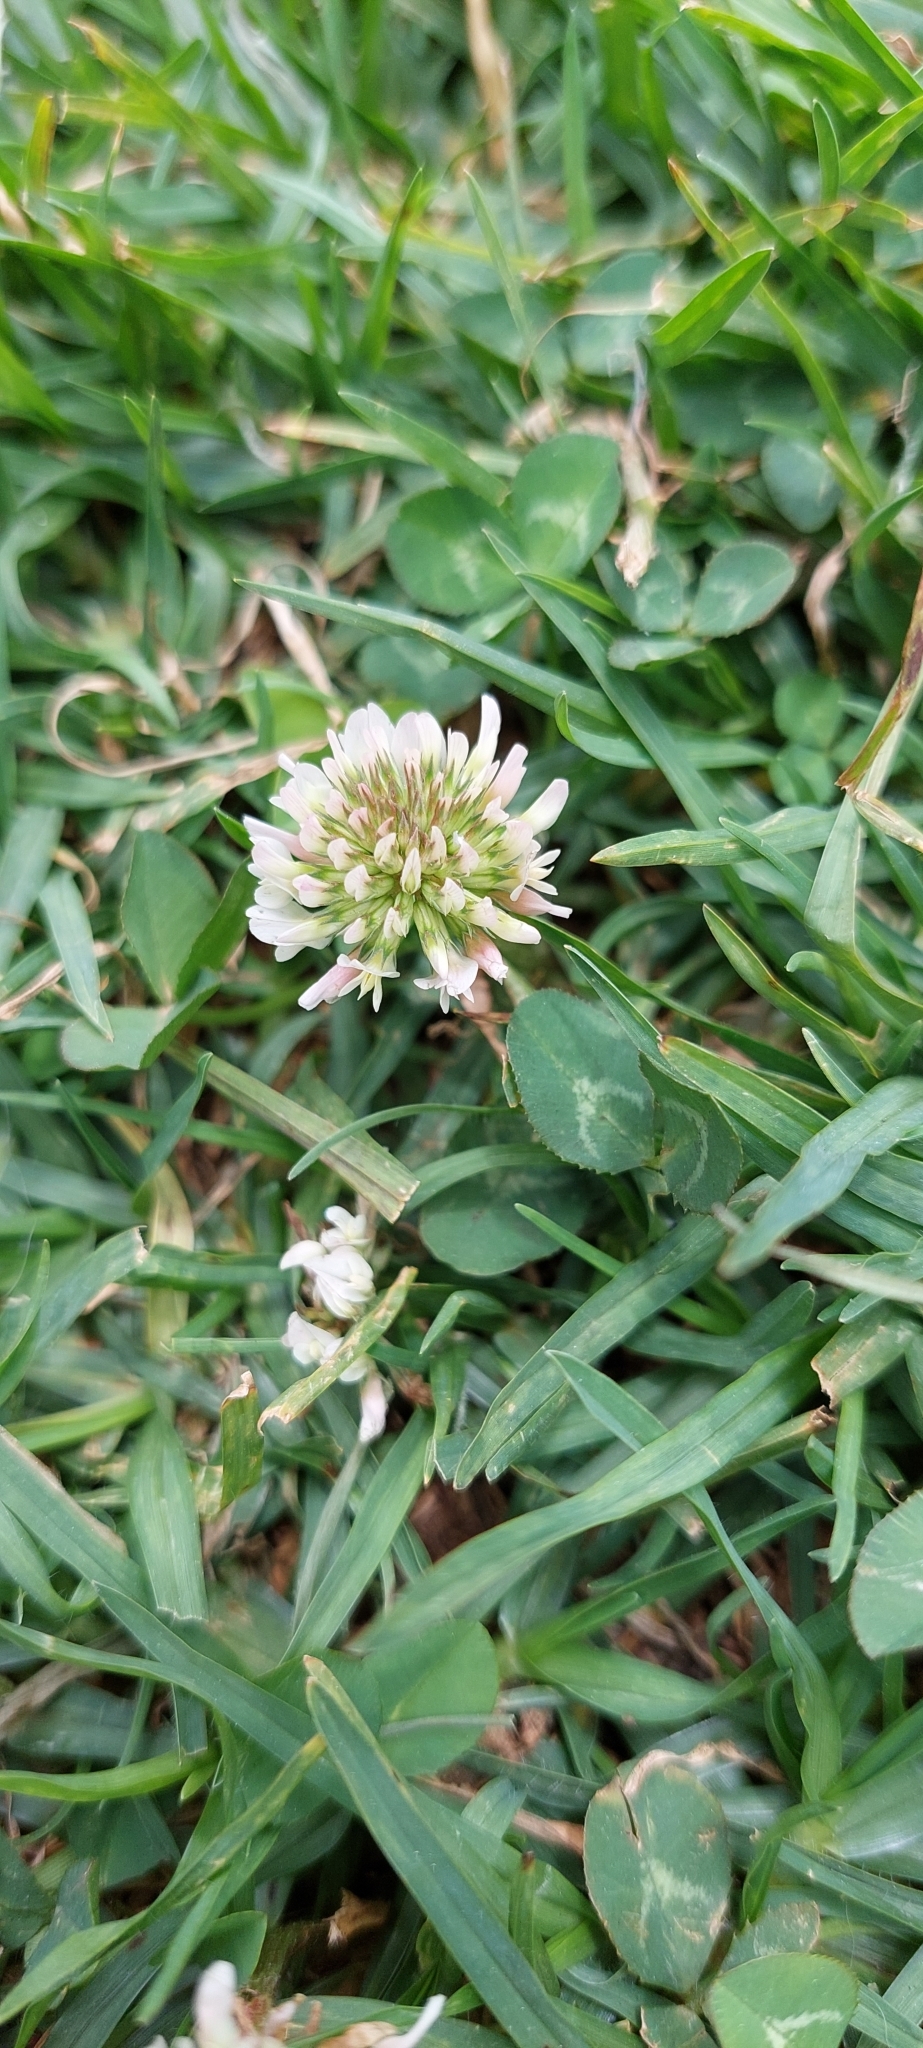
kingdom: Plantae
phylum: Tracheophyta
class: Magnoliopsida
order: Fabales
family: Fabaceae
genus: Trifolium
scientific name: Trifolium repens
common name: White clover
